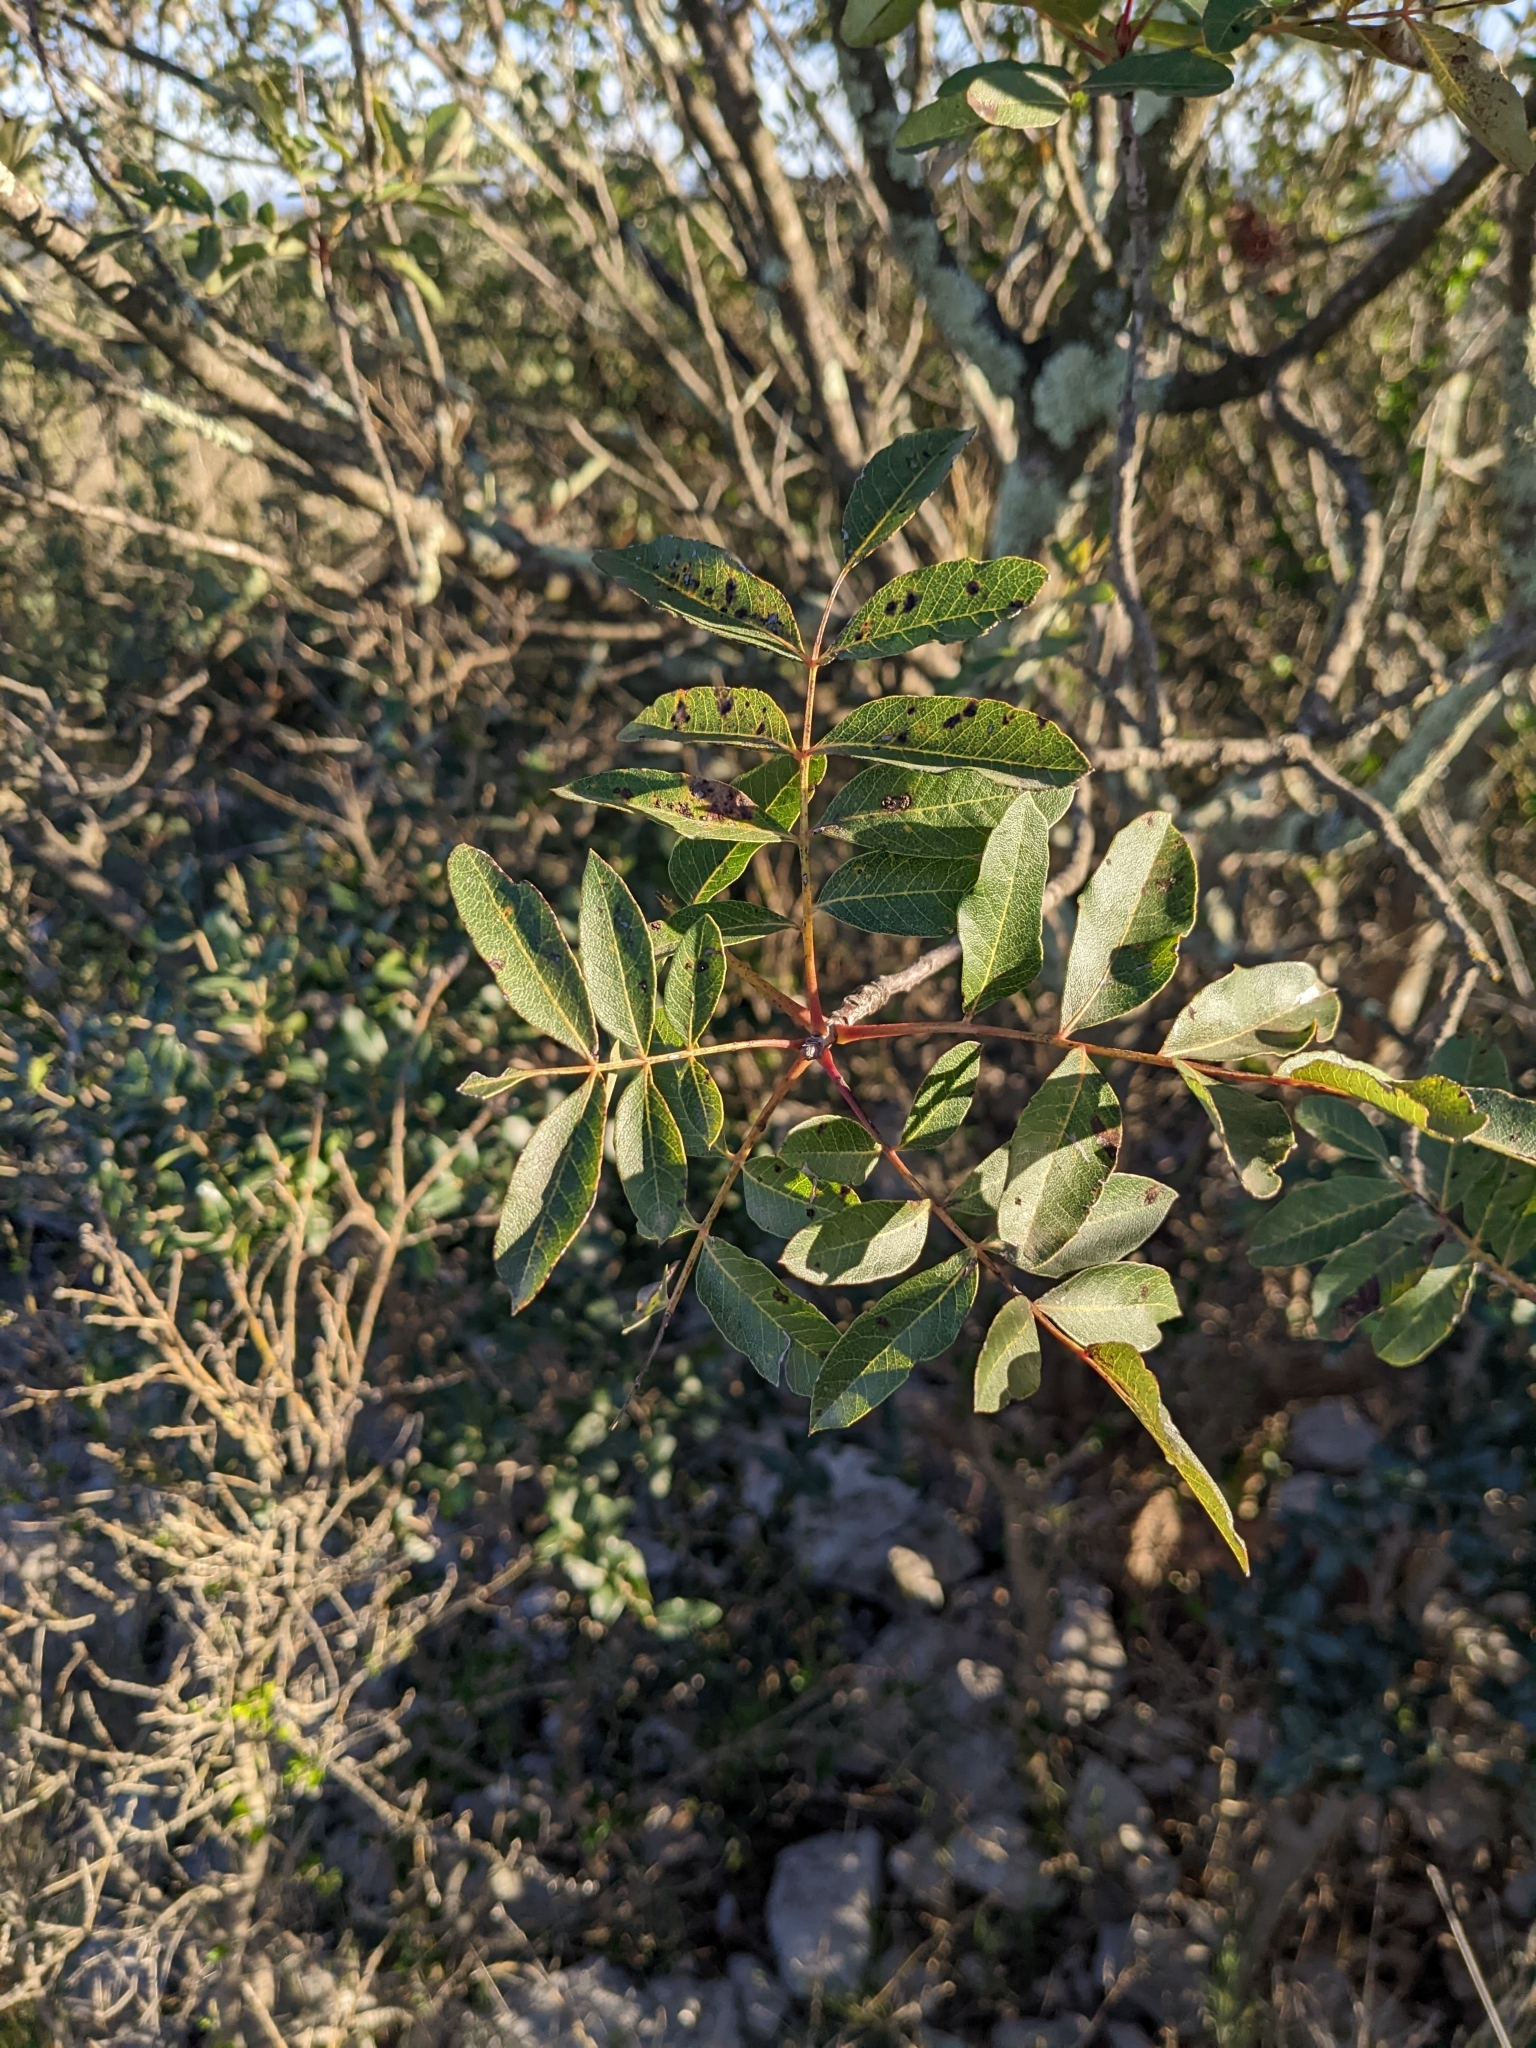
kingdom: Plantae
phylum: Tracheophyta
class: Magnoliopsida
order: Sapindales
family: Anacardiaceae
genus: Pistacia
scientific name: Pistacia terebinthus
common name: Terebinth
